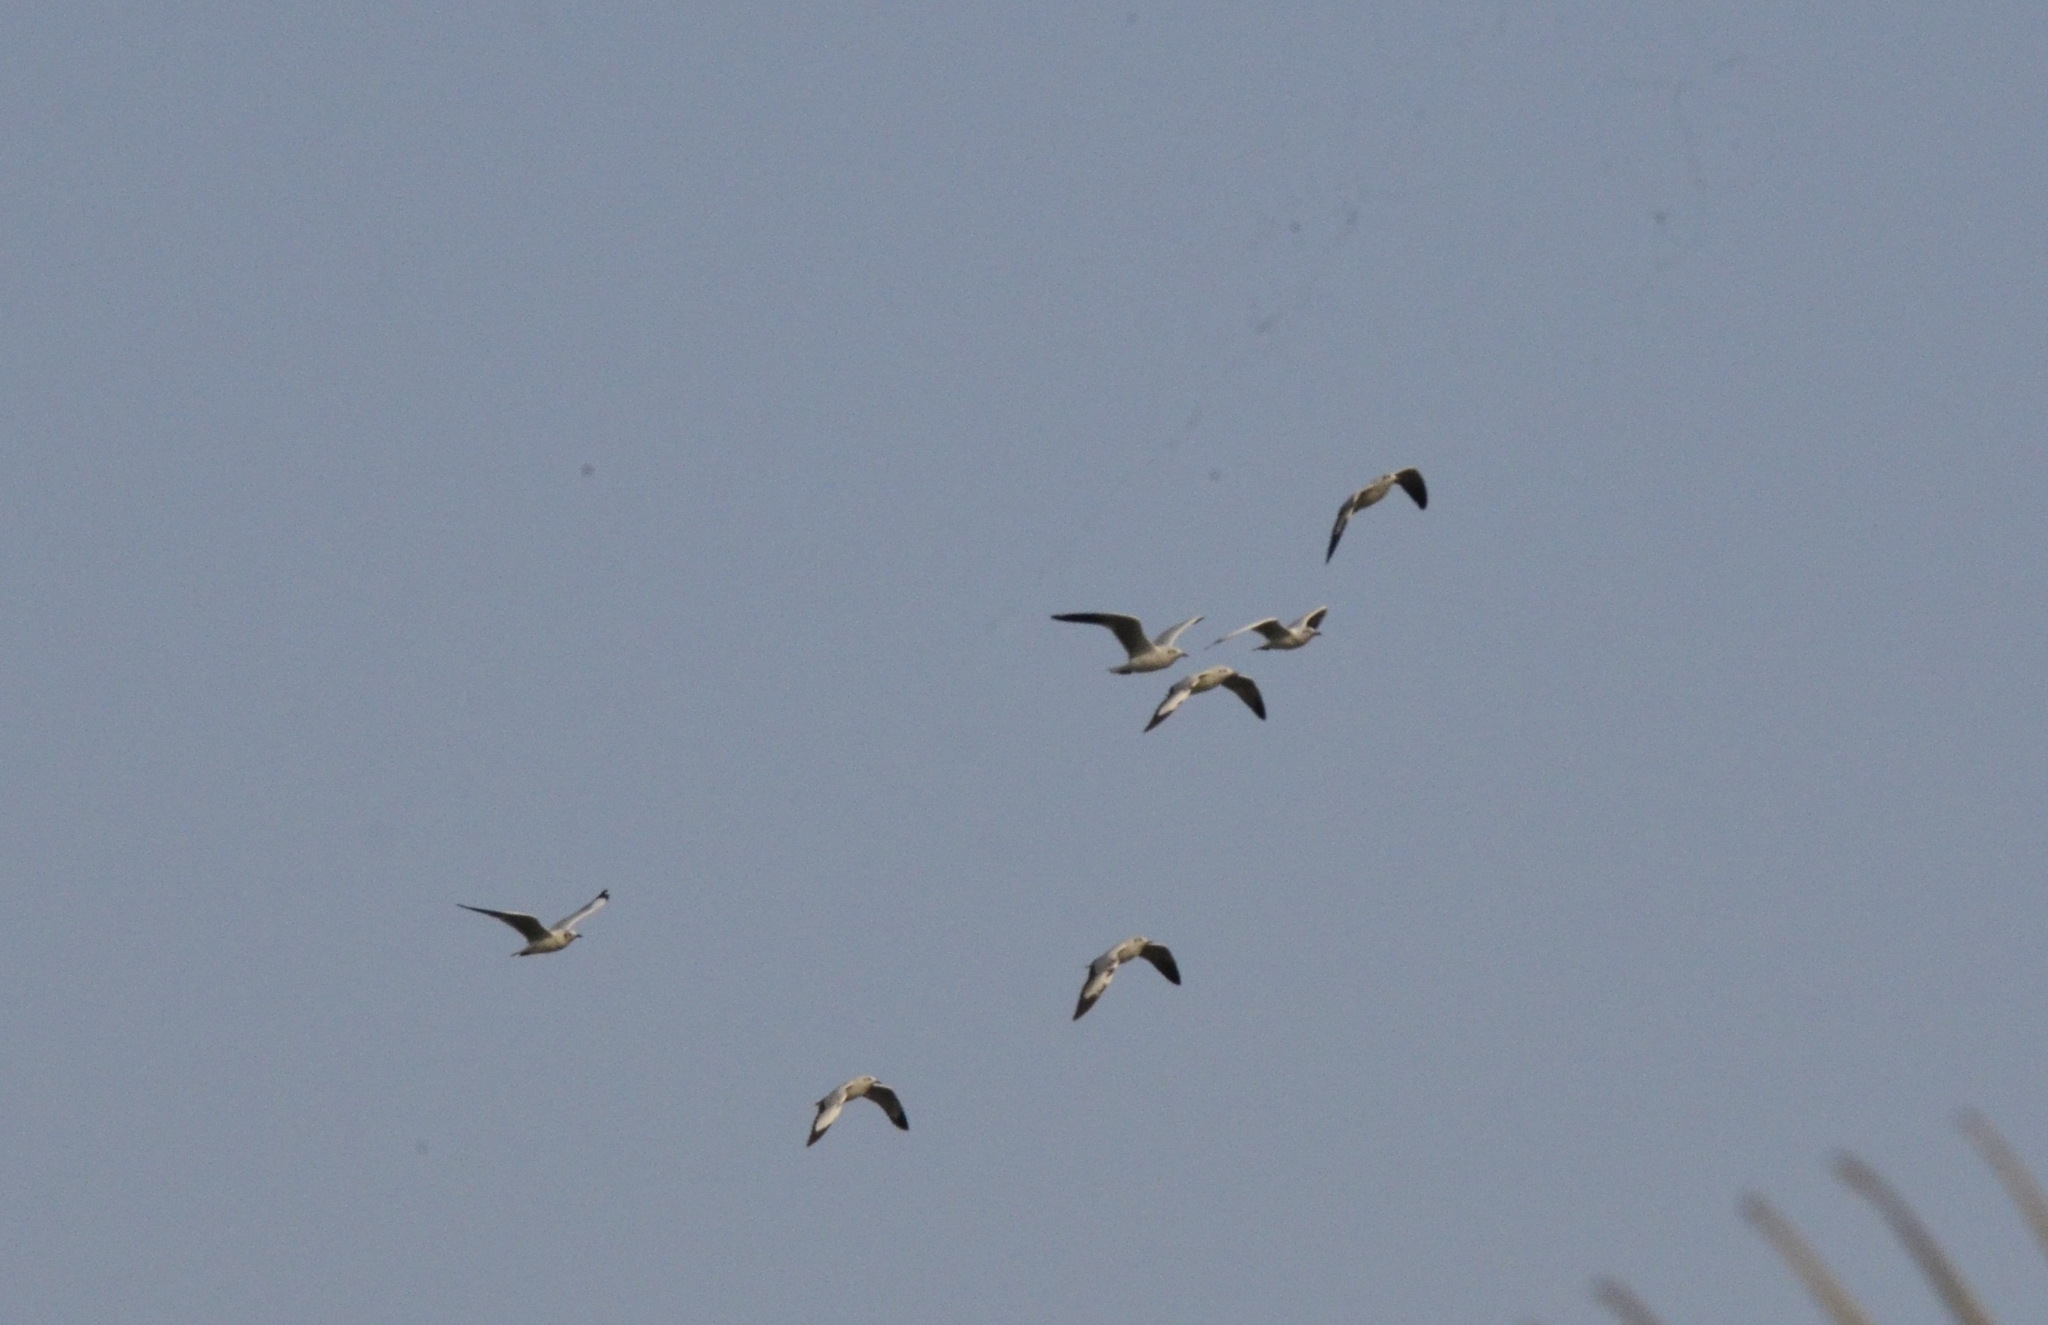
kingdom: Animalia
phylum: Chordata
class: Aves
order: Charadriiformes
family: Laridae
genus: Chroicocephalus
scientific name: Chroicocephalus brunnicephalus
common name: Brown-headed gull
